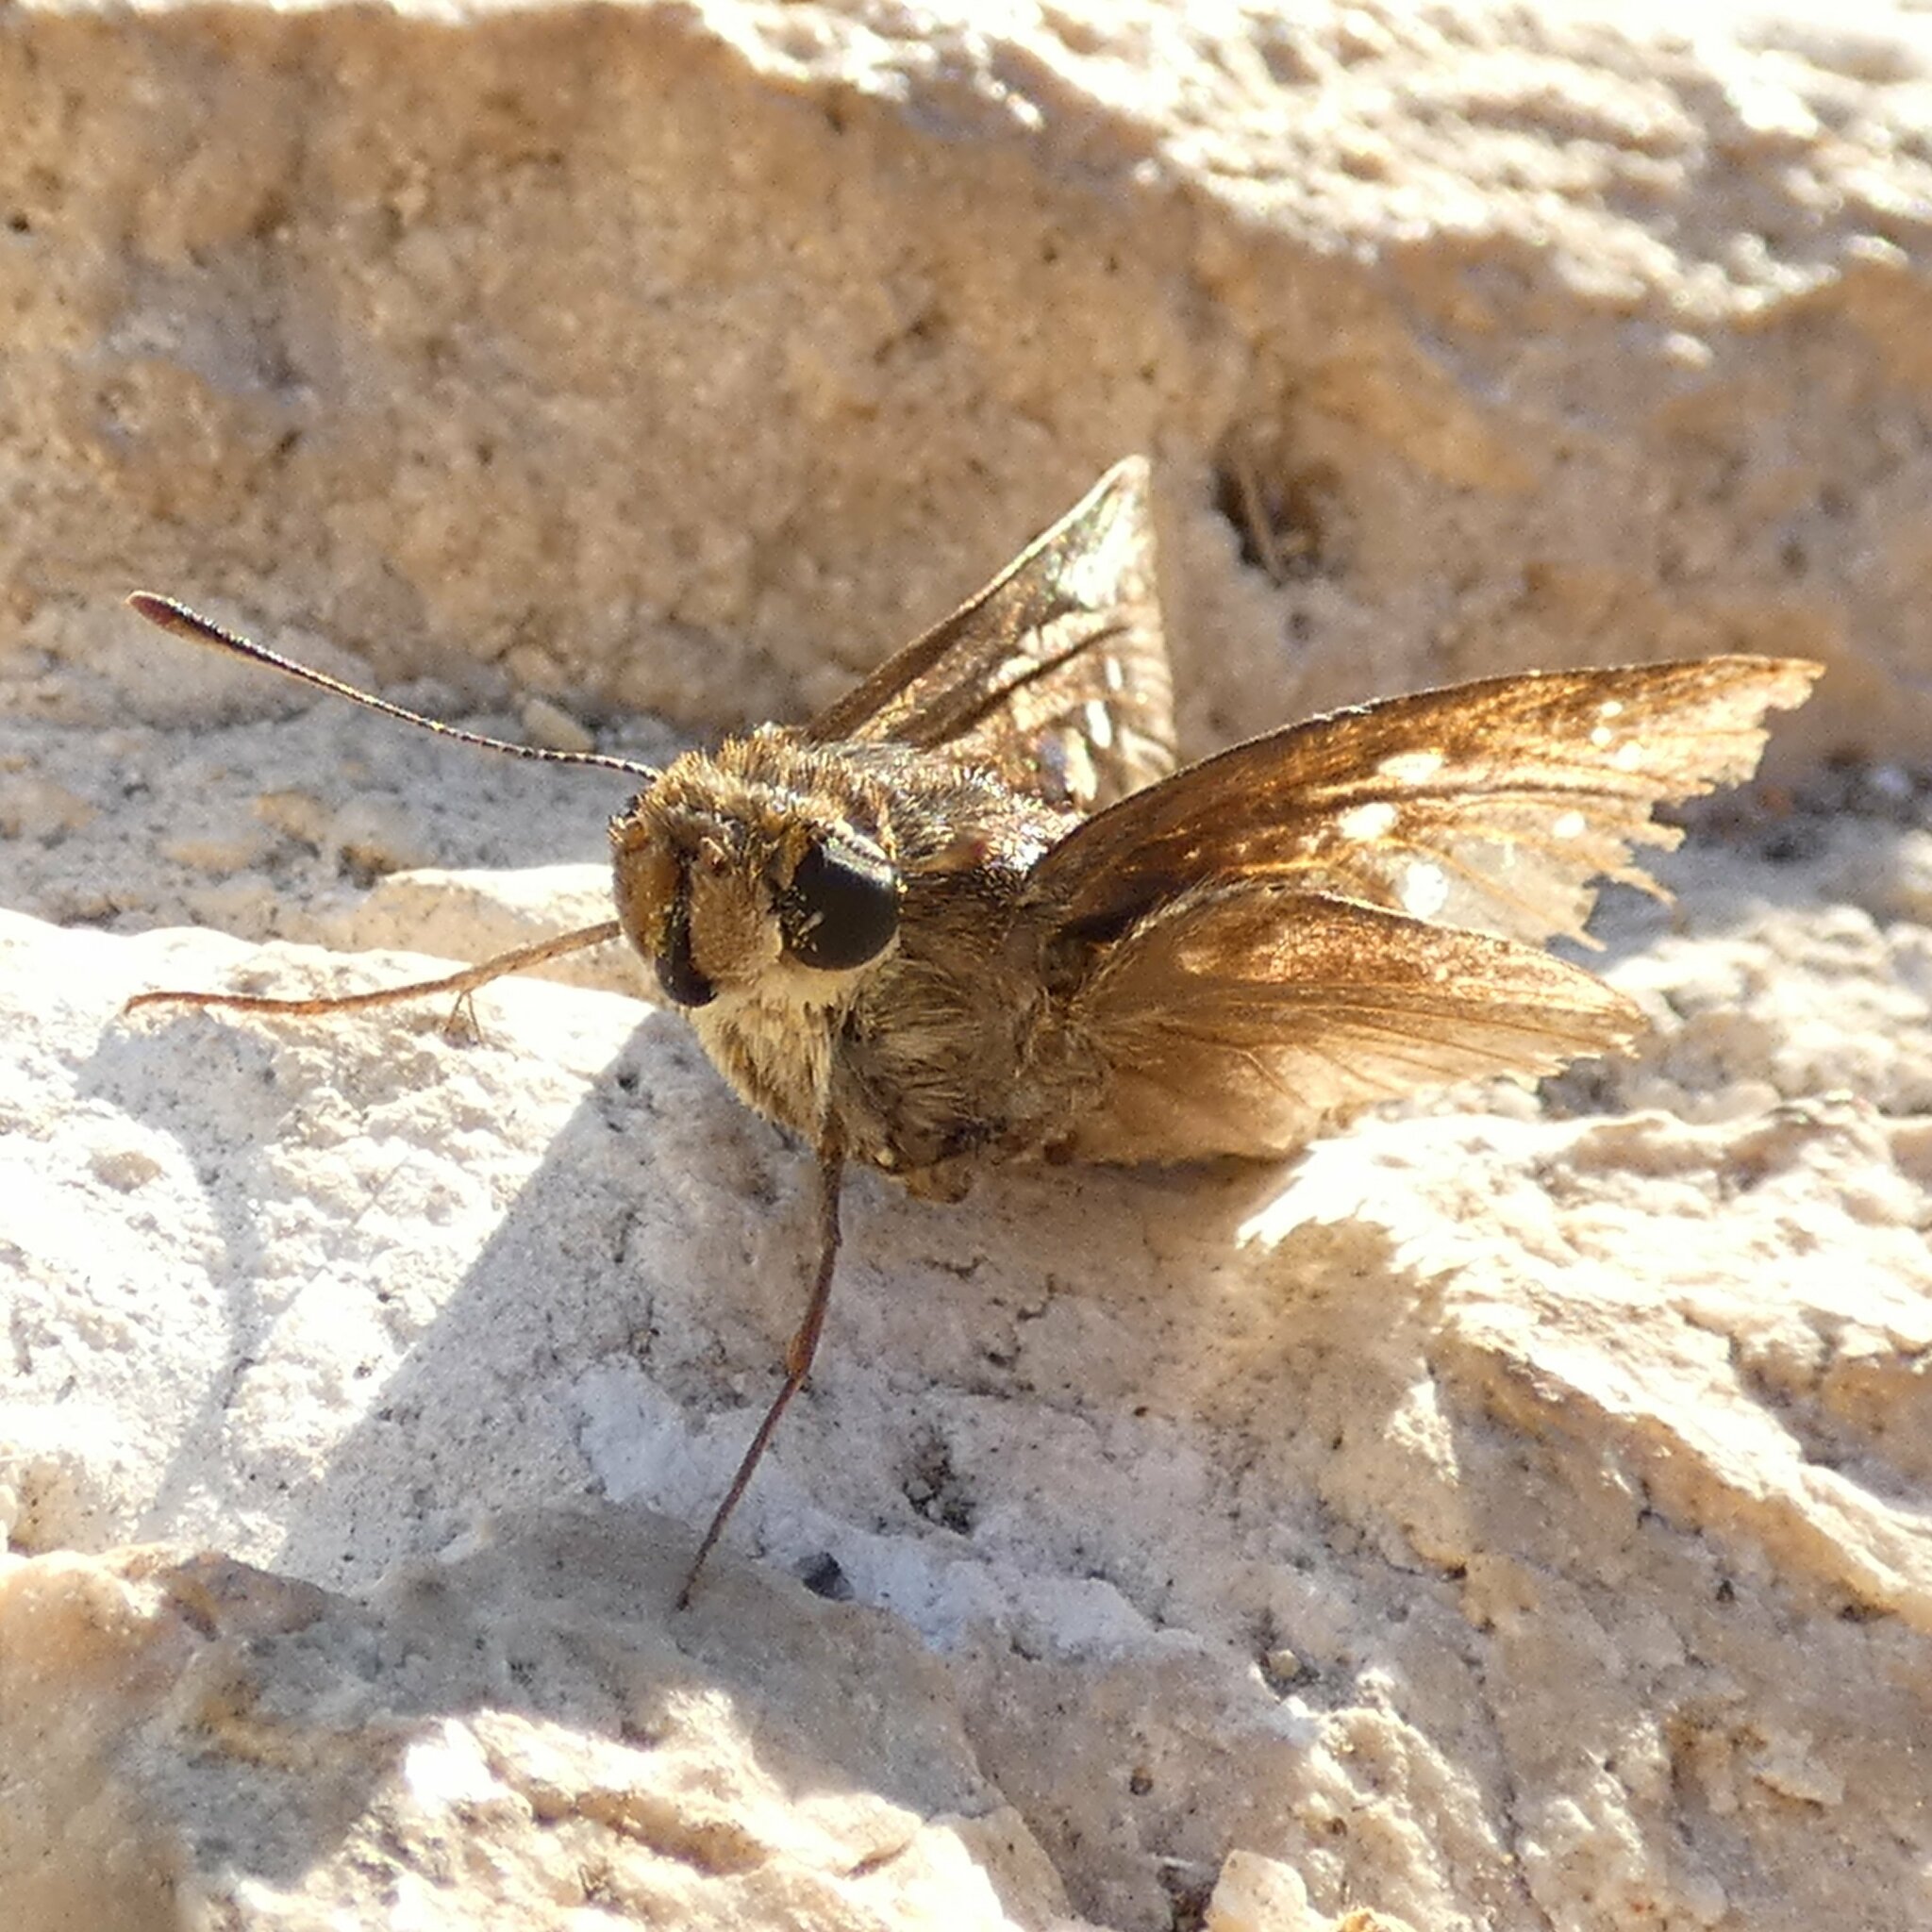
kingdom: Animalia
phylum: Arthropoda
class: Insecta
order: Lepidoptera
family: Hesperiidae
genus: Pelopidas
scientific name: Pelopidas thrax
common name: Millet skipper
